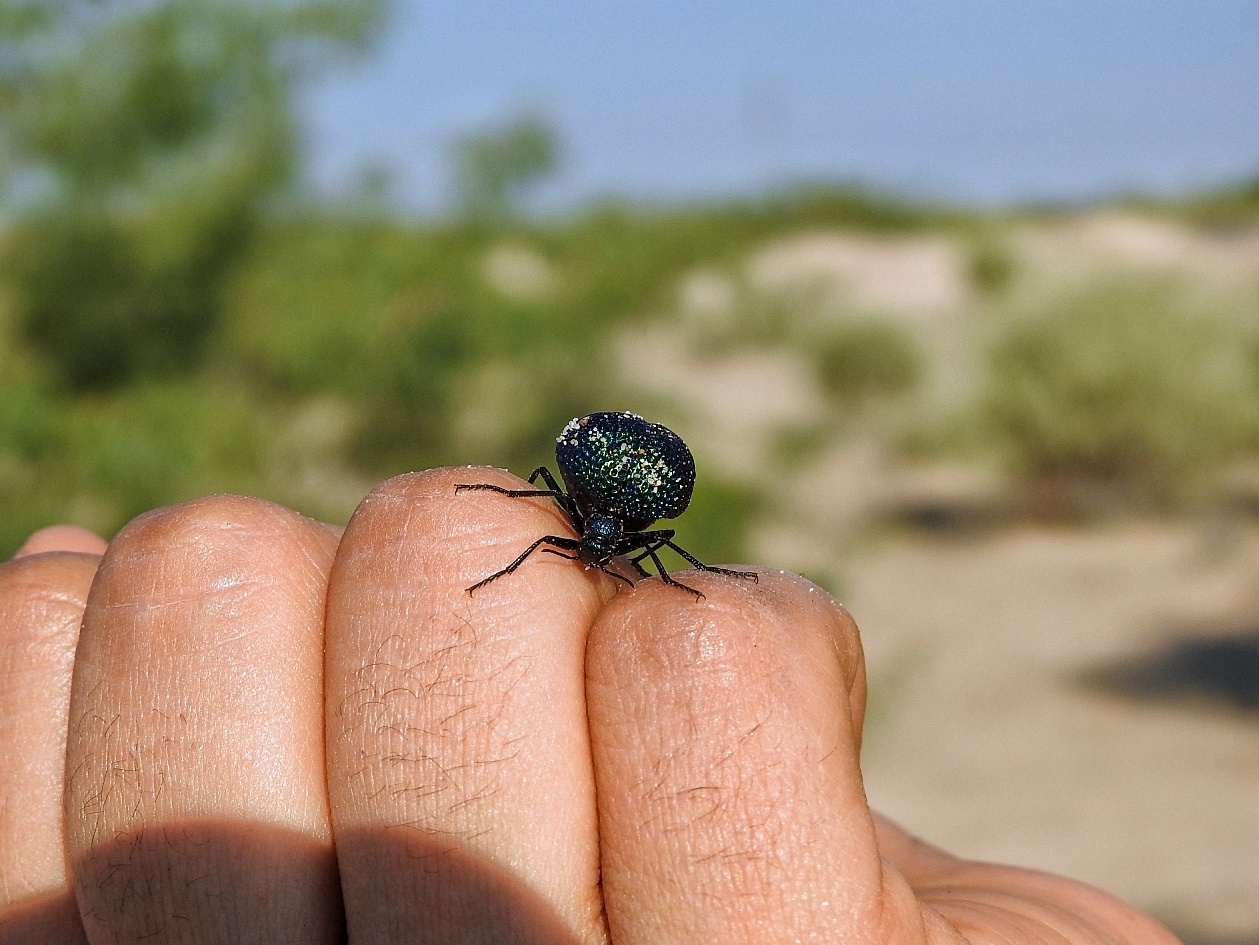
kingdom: Animalia
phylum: Arthropoda
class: Insecta
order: Coleoptera
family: Meloidae
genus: Cysteodemus
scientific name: Cysteodemus wislizeni
